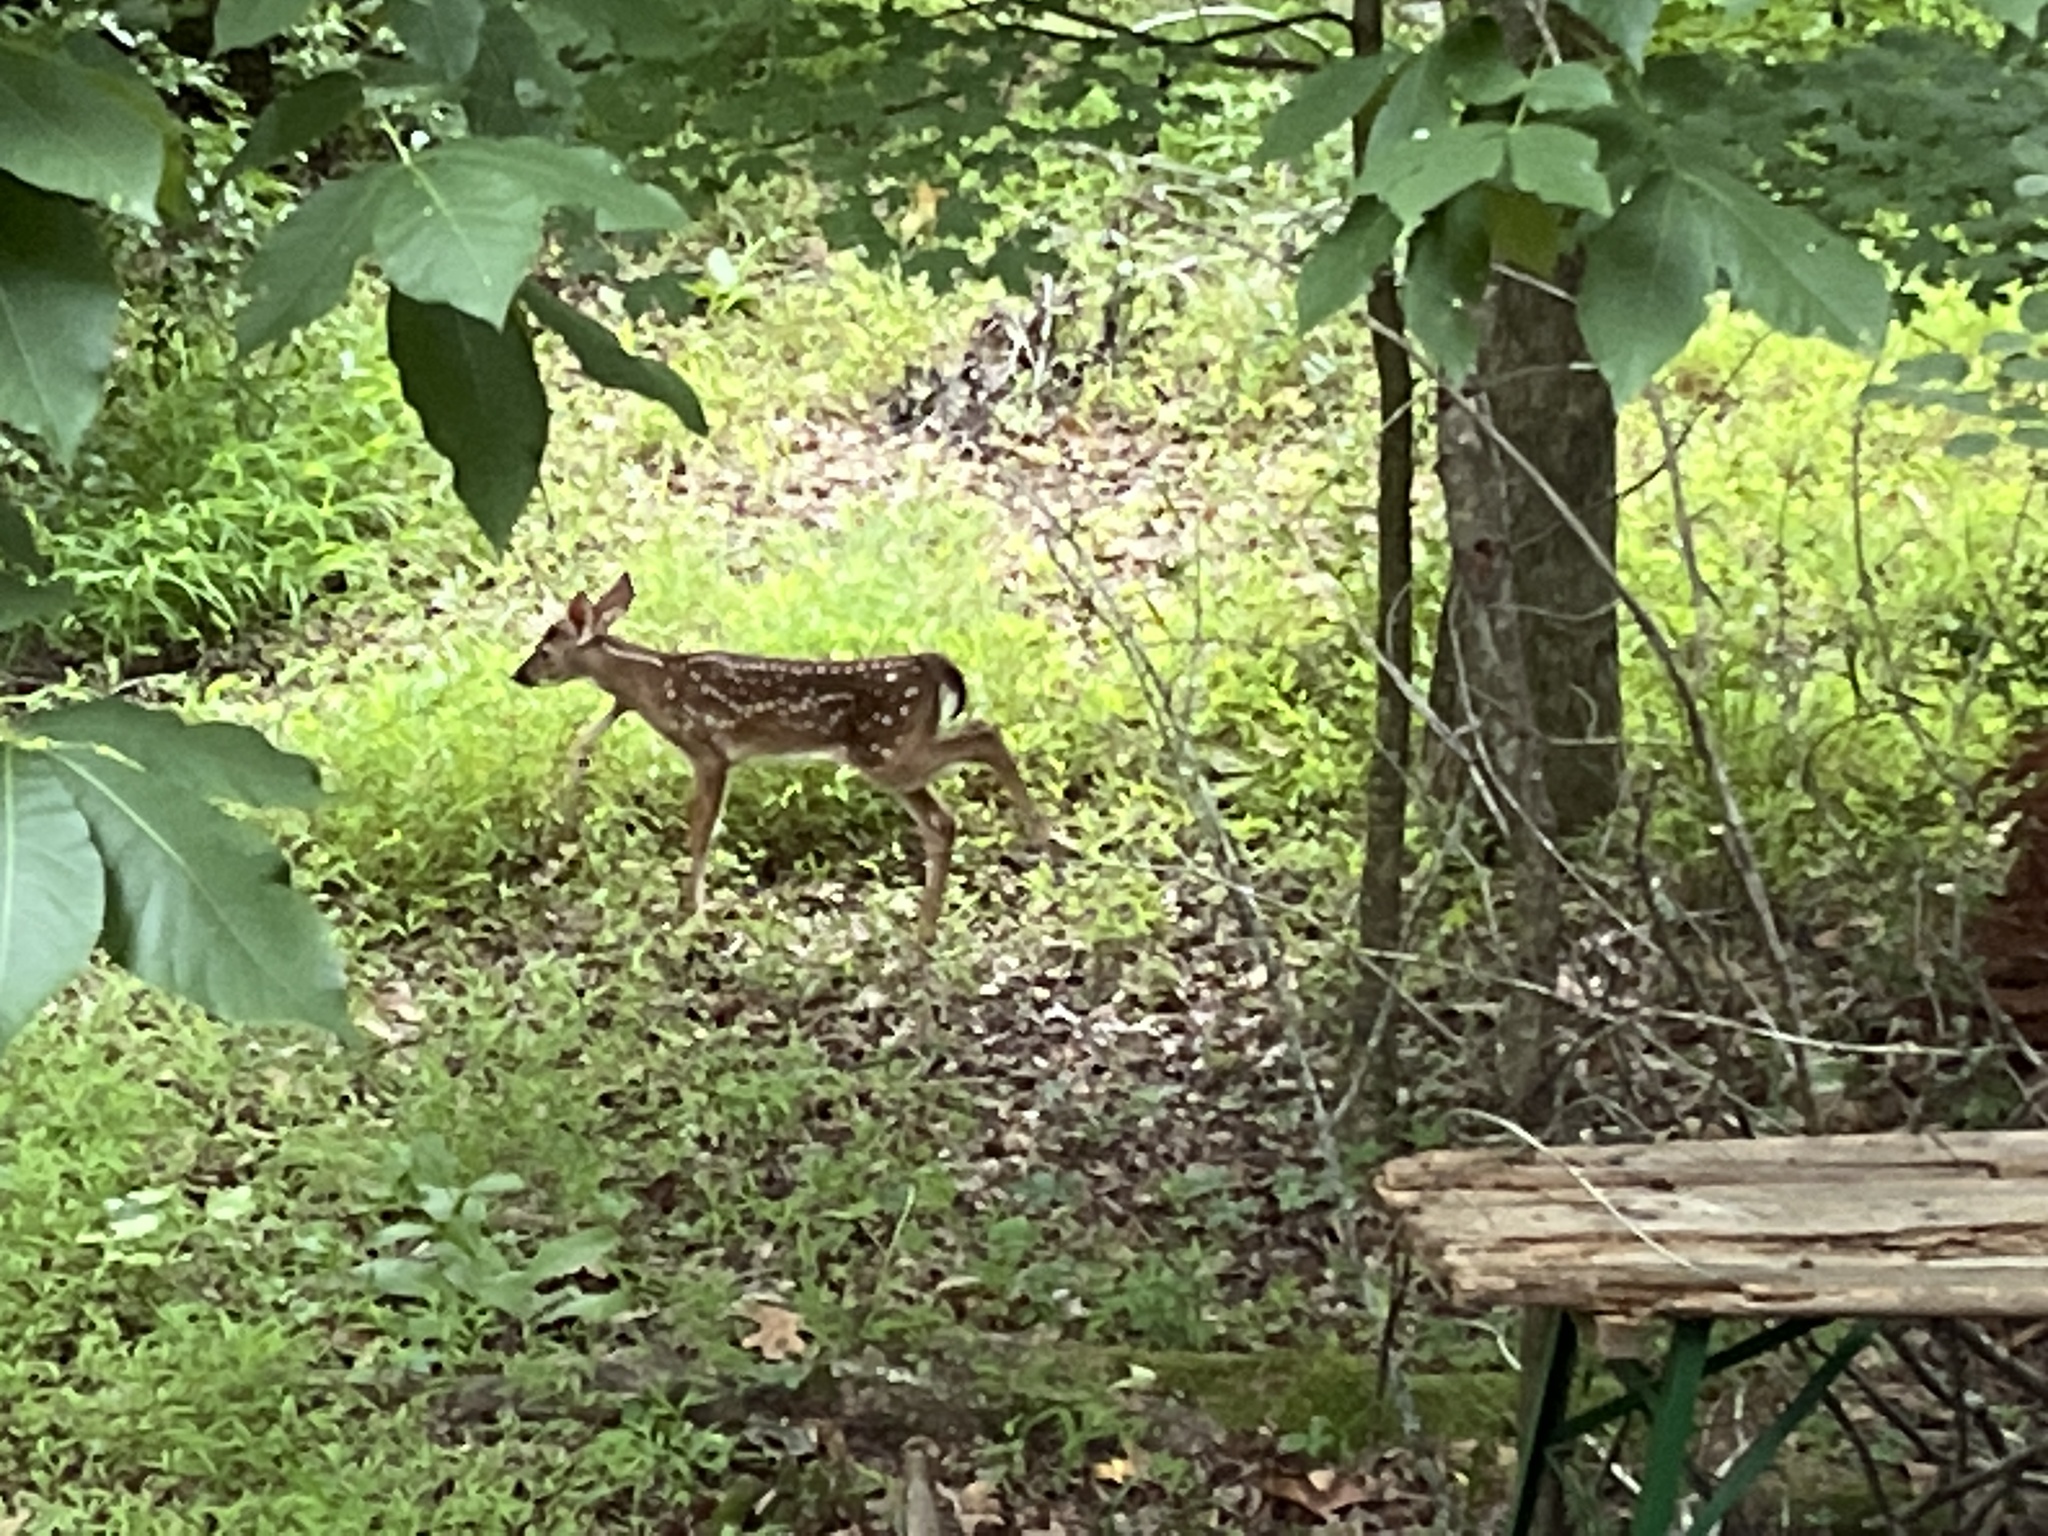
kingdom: Animalia
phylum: Chordata
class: Mammalia
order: Artiodactyla
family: Cervidae
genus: Odocoileus
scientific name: Odocoileus virginianus
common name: White-tailed deer
